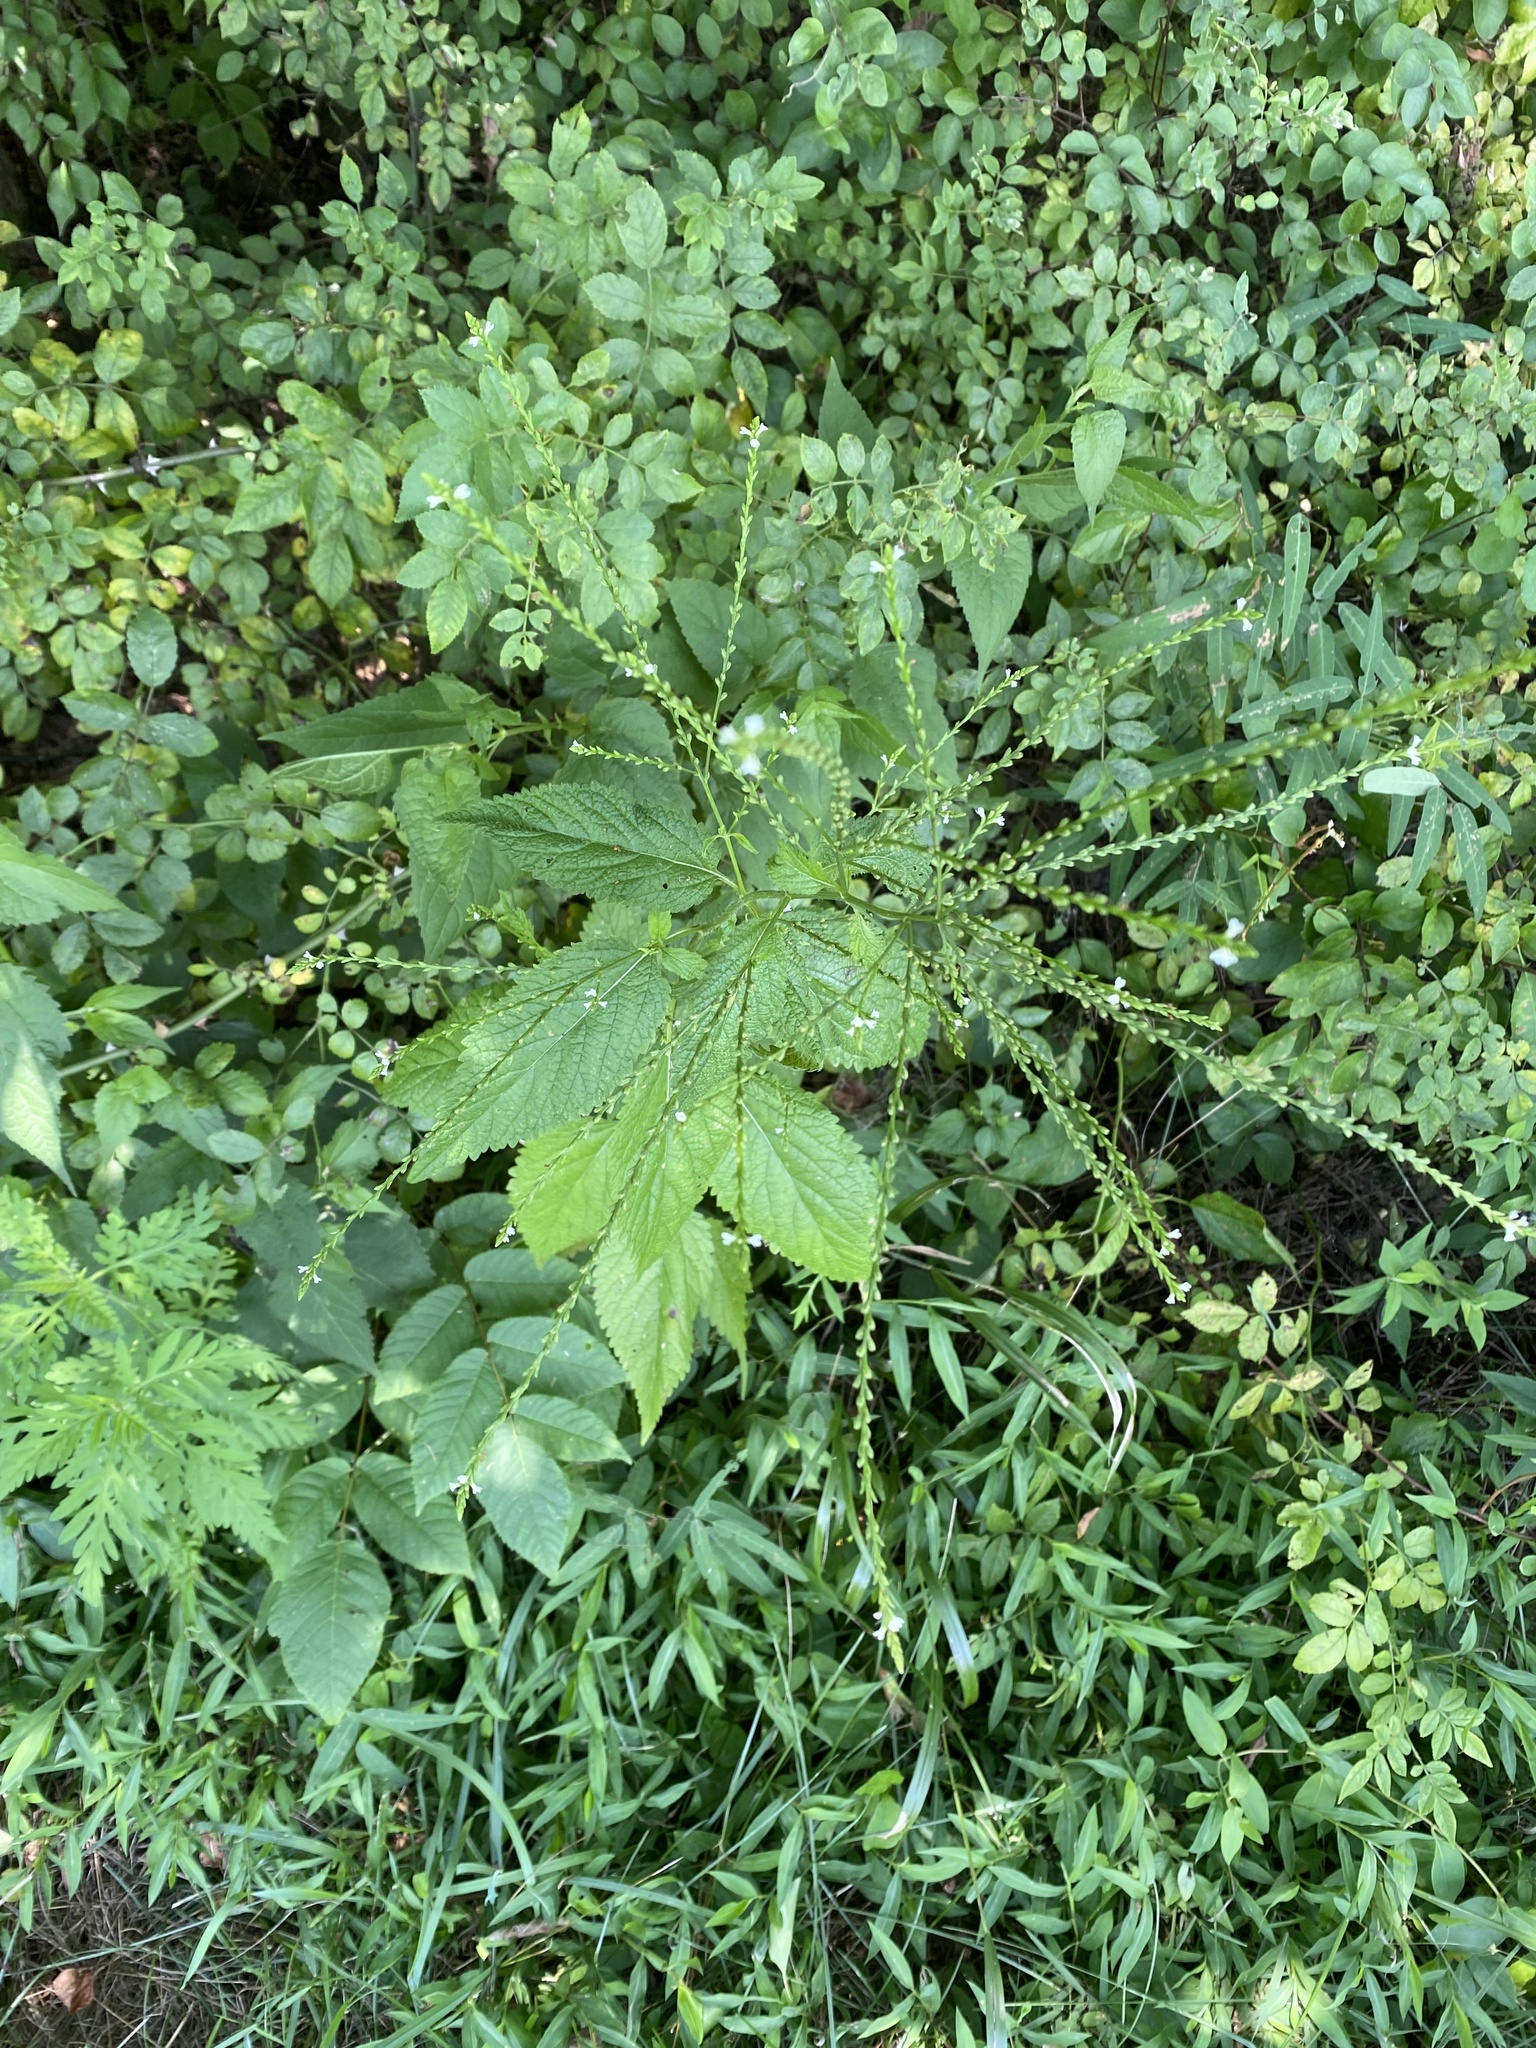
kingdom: Plantae
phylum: Tracheophyta
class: Magnoliopsida
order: Lamiales
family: Verbenaceae
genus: Verbena
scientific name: Verbena urticifolia
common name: Nettle-leaved vervain
